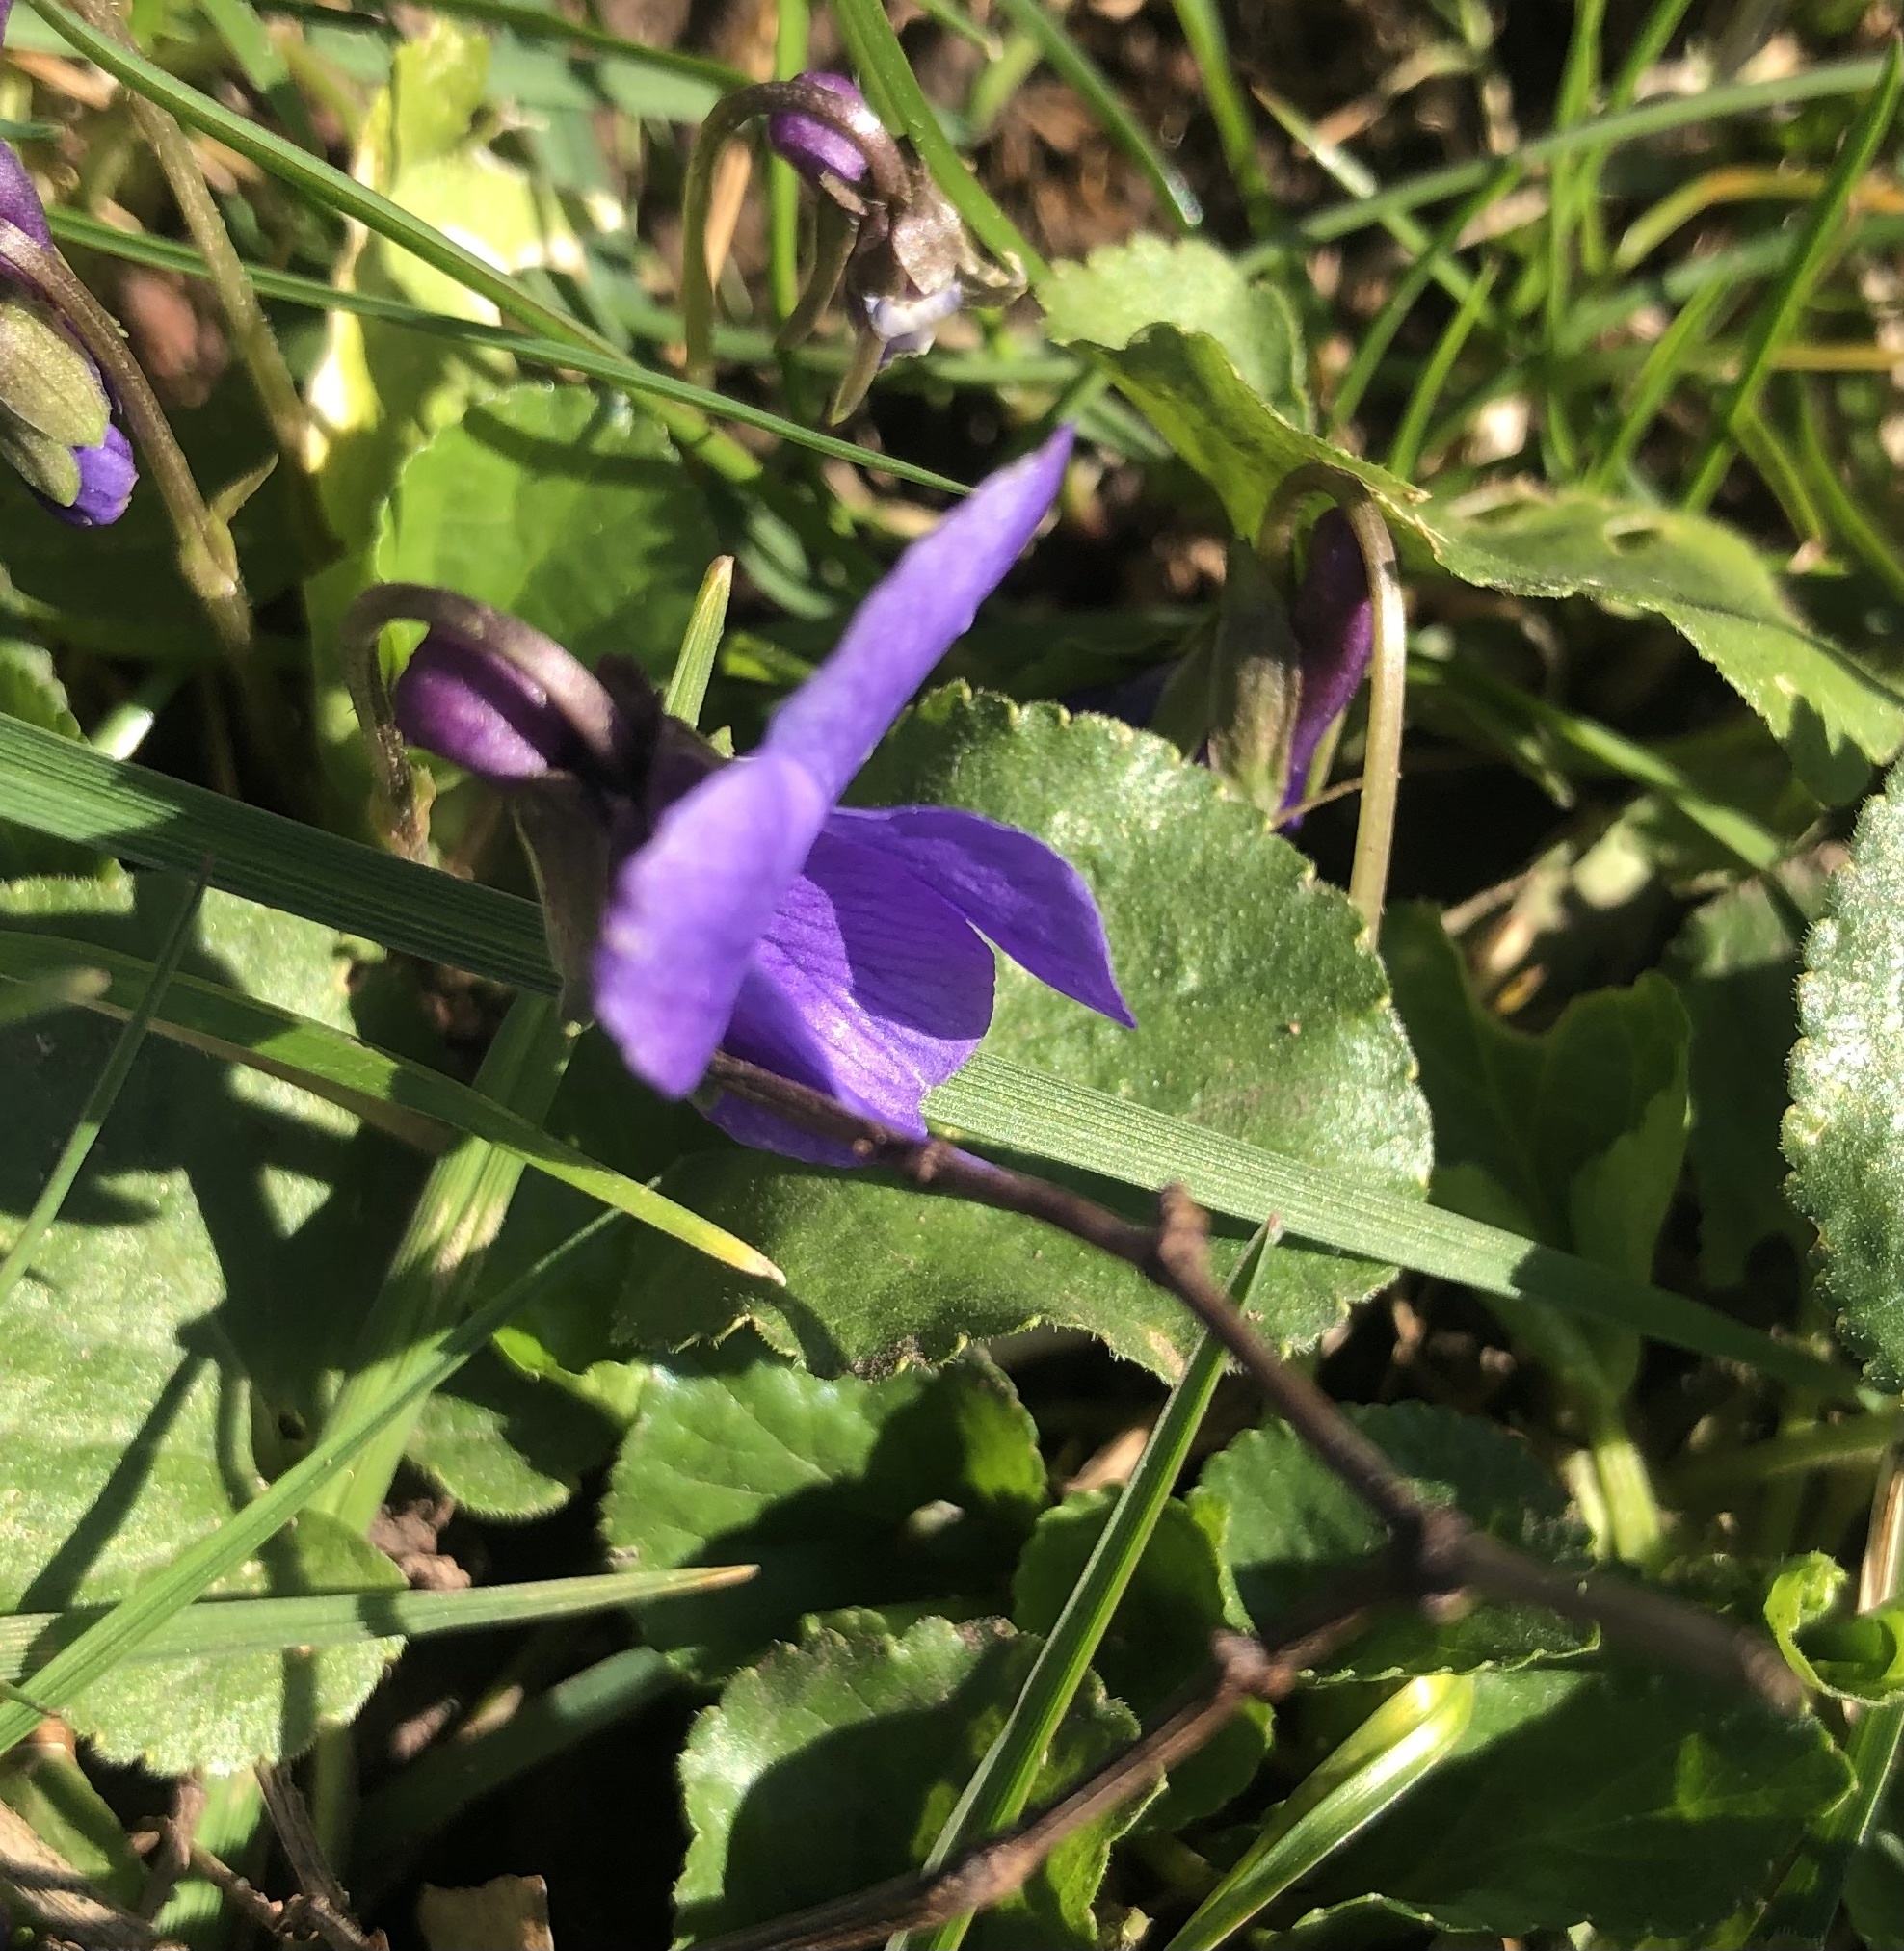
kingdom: Plantae
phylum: Tracheophyta
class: Magnoliopsida
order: Malpighiales
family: Violaceae
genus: Viola
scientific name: Viola odorata
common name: Sweet violet
